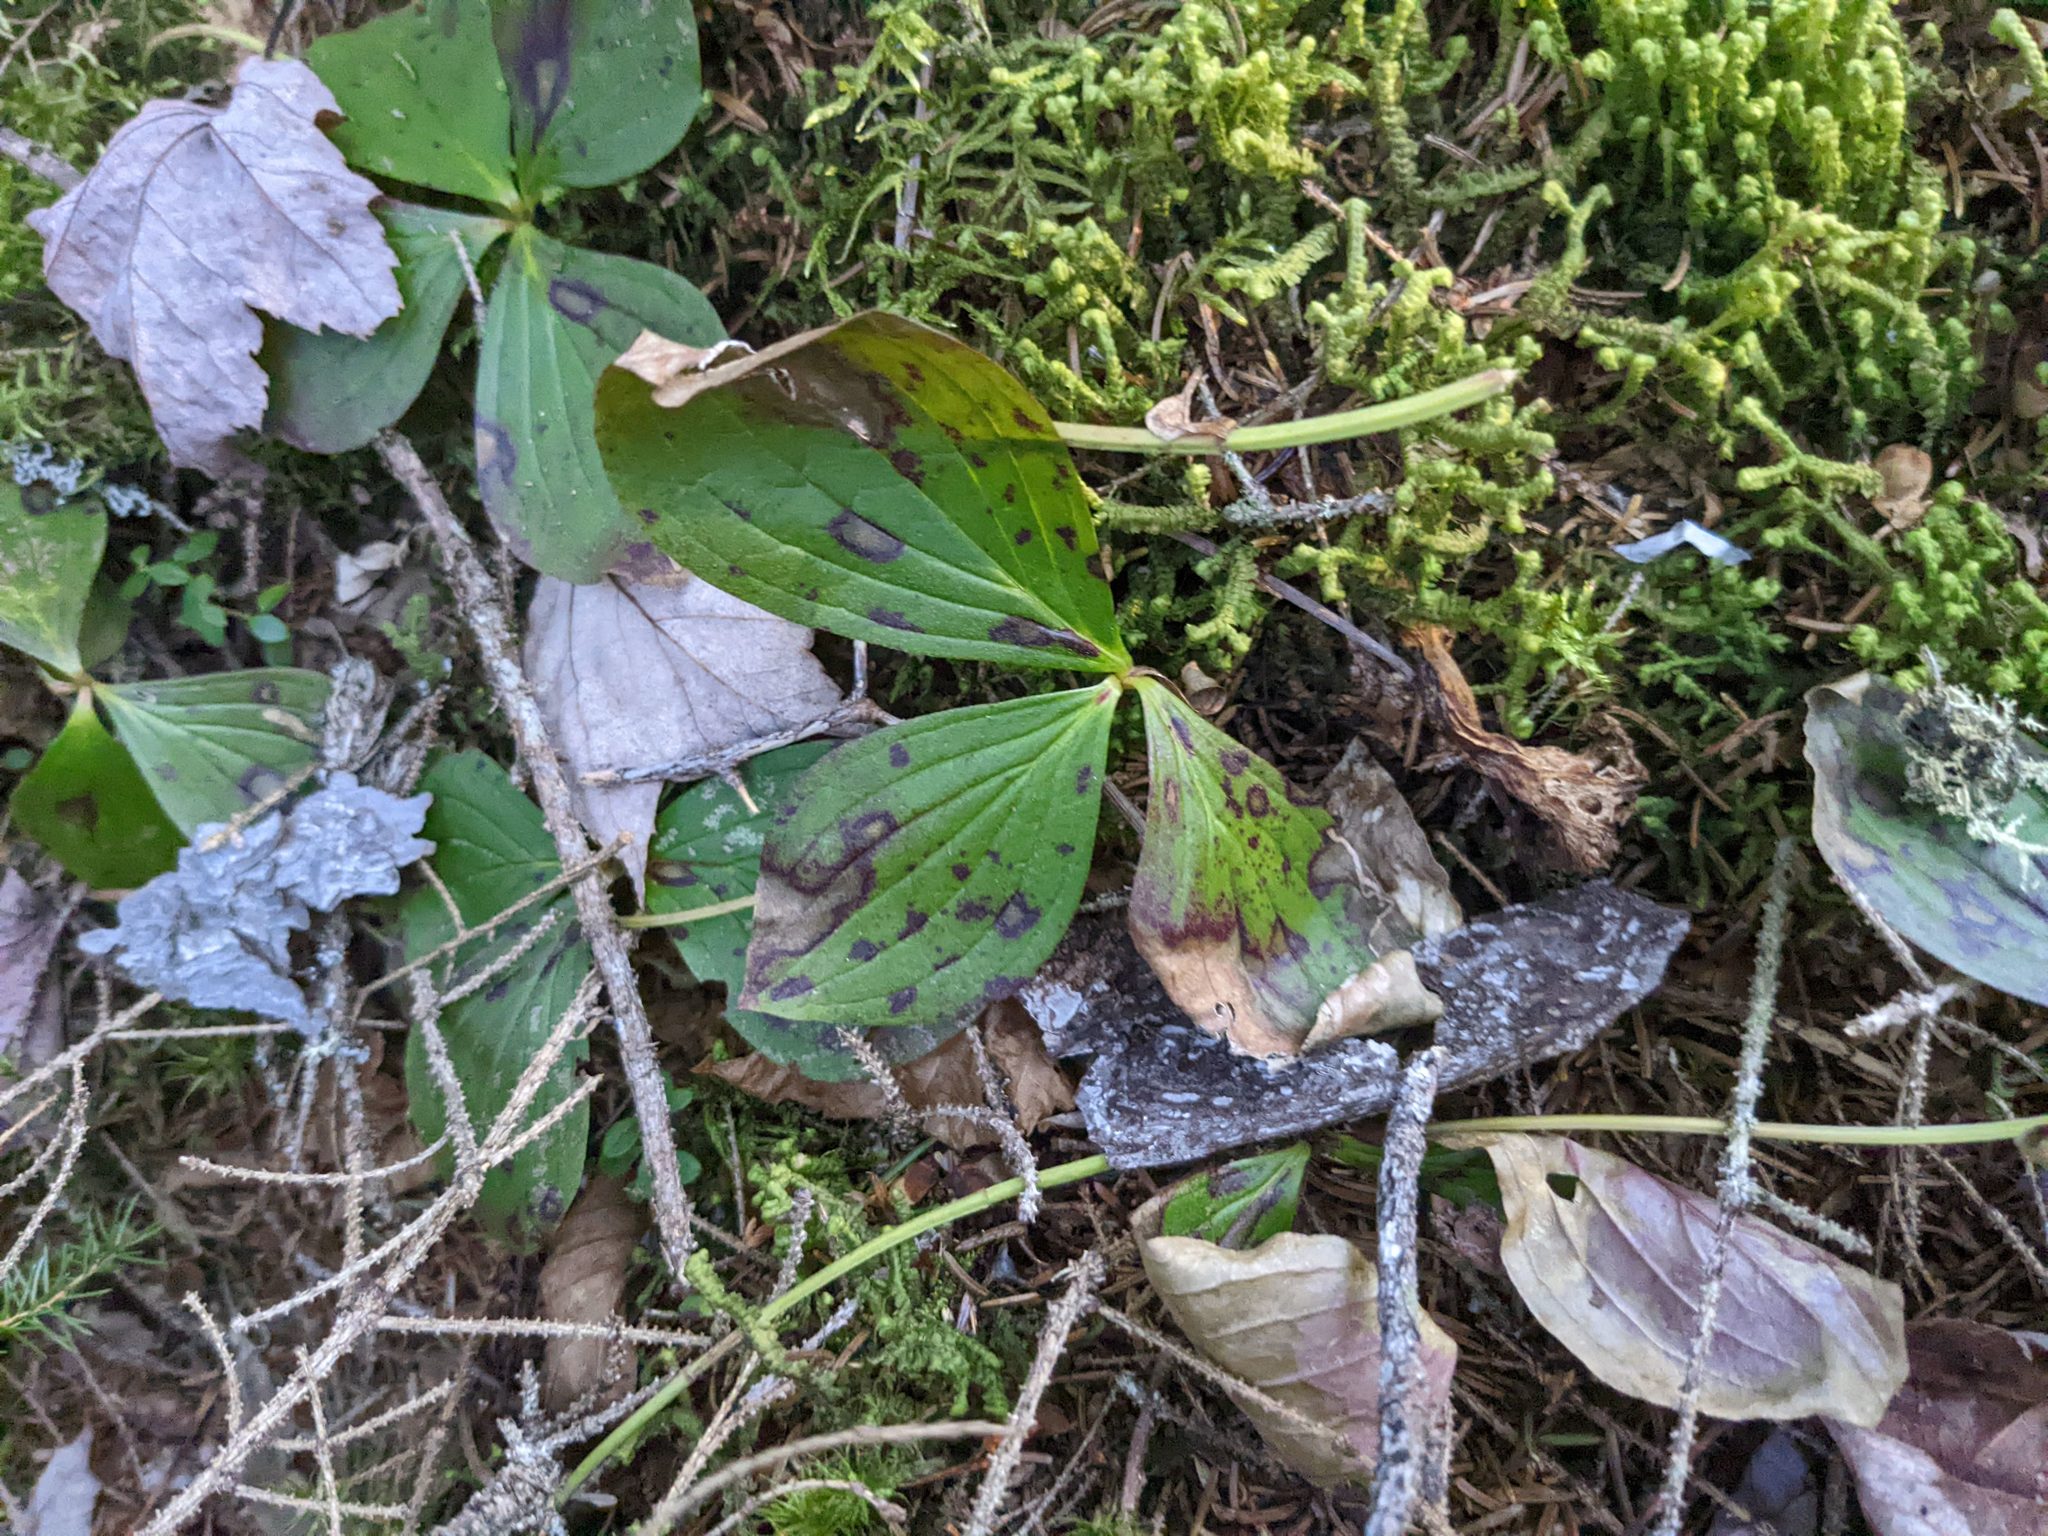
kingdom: Plantae
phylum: Tracheophyta
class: Magnoliopsida
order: Cornales
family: Cornaceae
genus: Cornus
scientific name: Cornus canadensis
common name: Creeping dogwood
